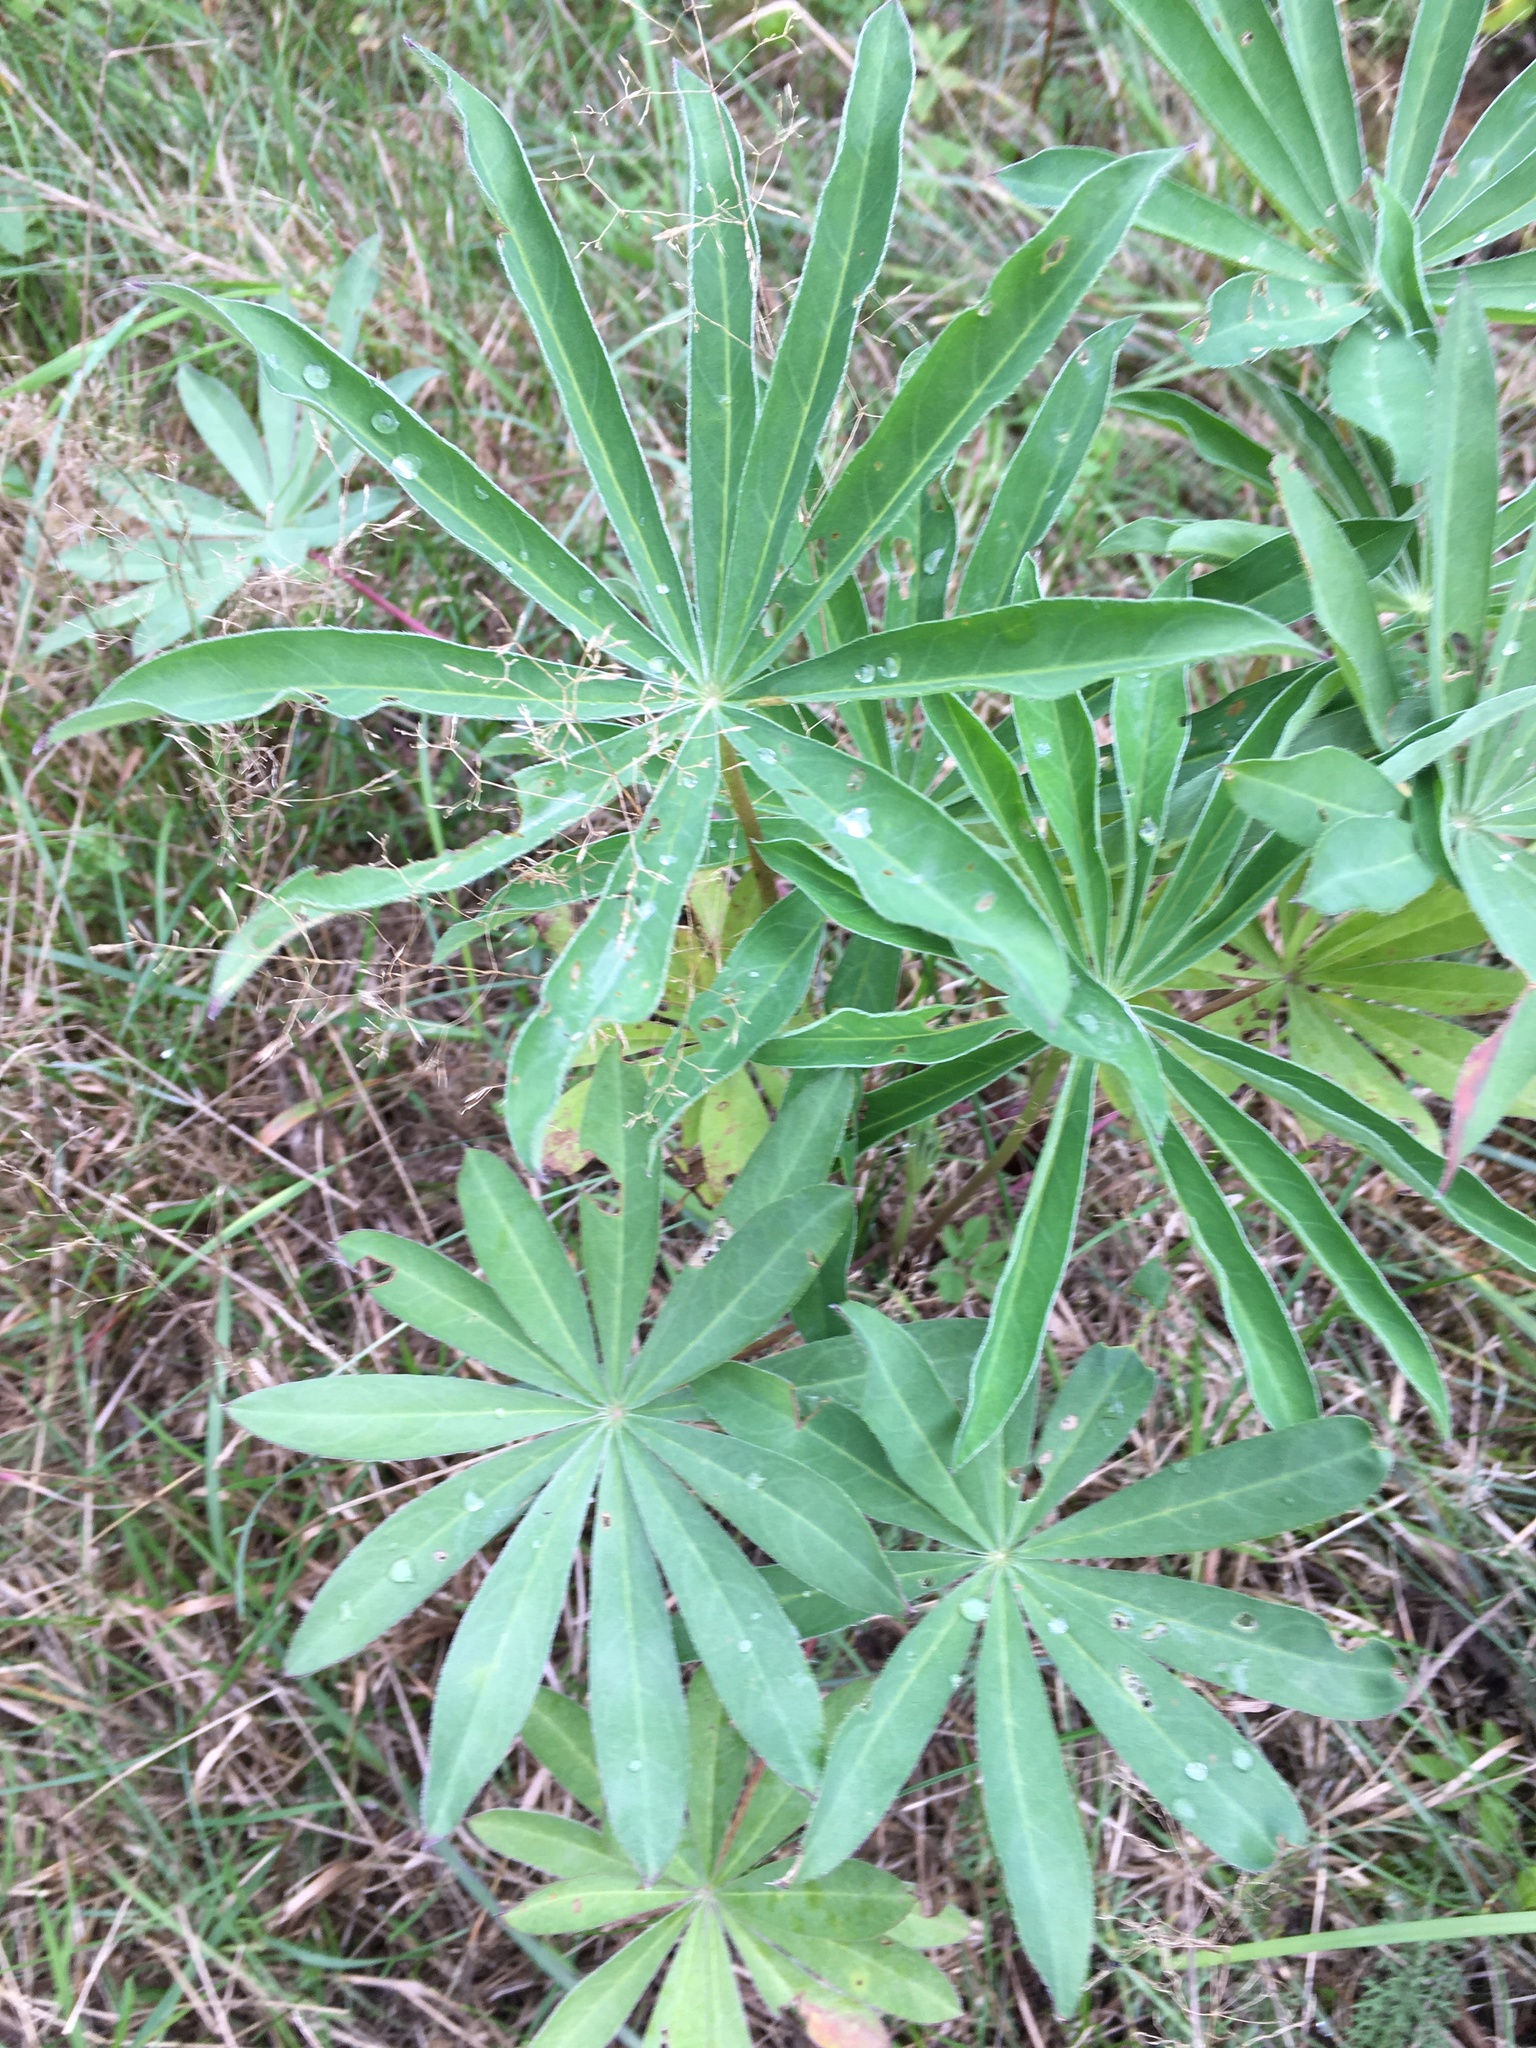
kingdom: Plantae
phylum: Tracheophyta
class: Magnoliopsida
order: Fabales
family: Fabaceae
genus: Lupinus
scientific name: Lupinus polyphyllus
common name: Garden lupin
